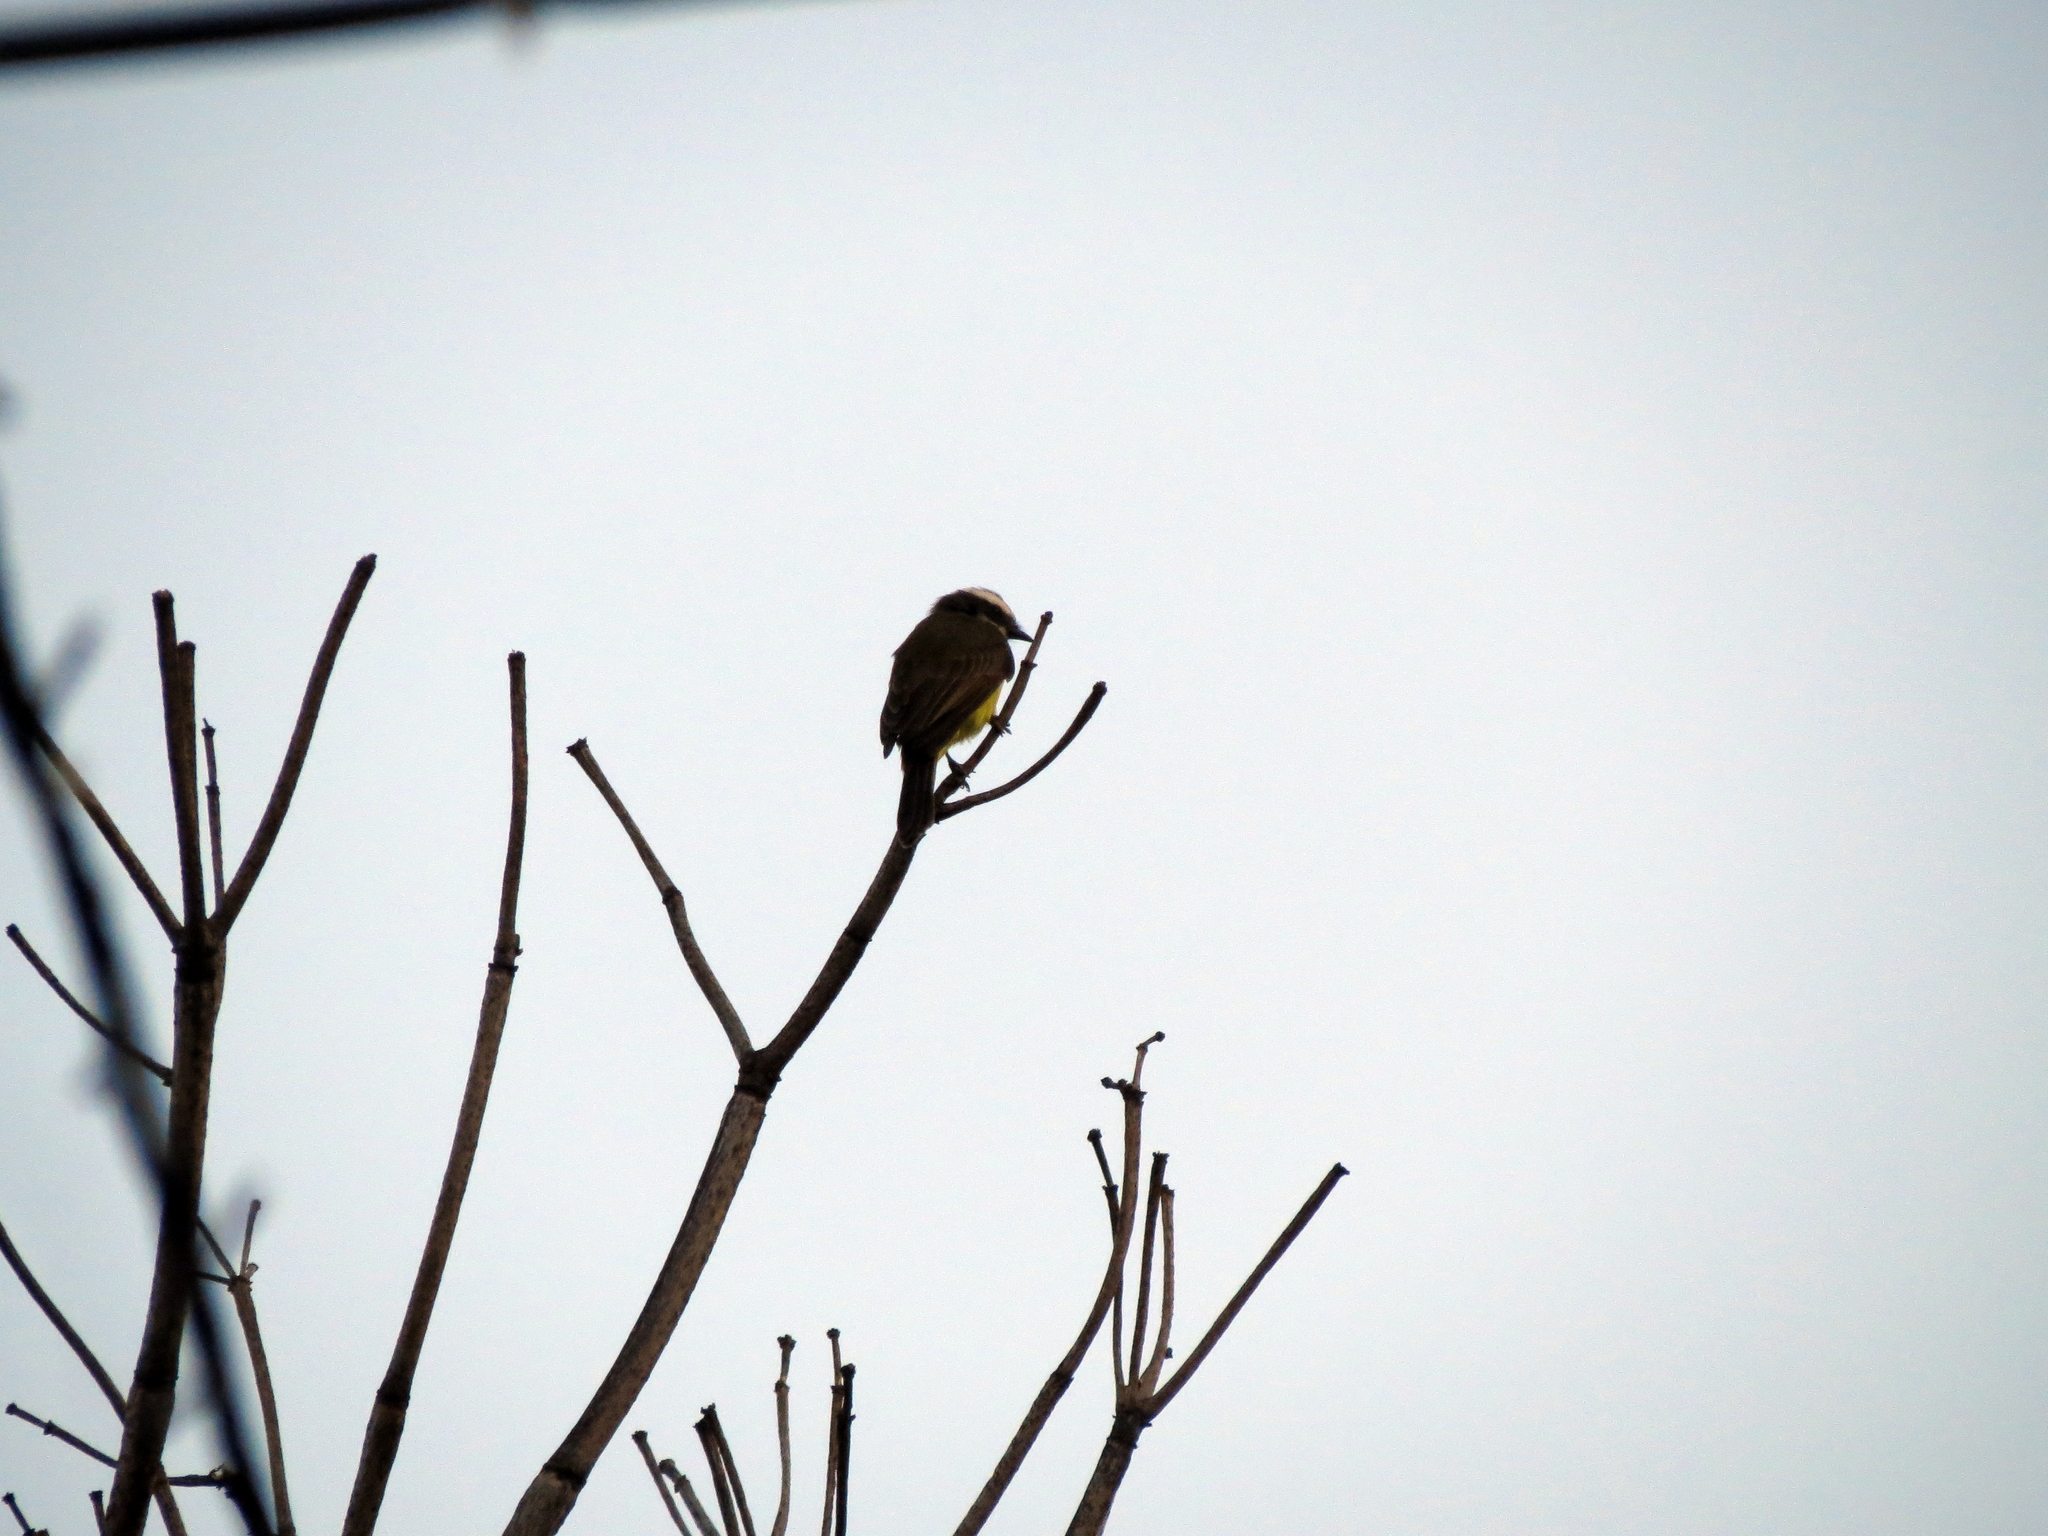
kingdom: Animalia
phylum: Chordata
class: Aves
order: Passeriformes
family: Tyrannidae
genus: Myiozetetes
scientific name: Myiozetetes cayanensis
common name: Rusty-margined flycatcher
